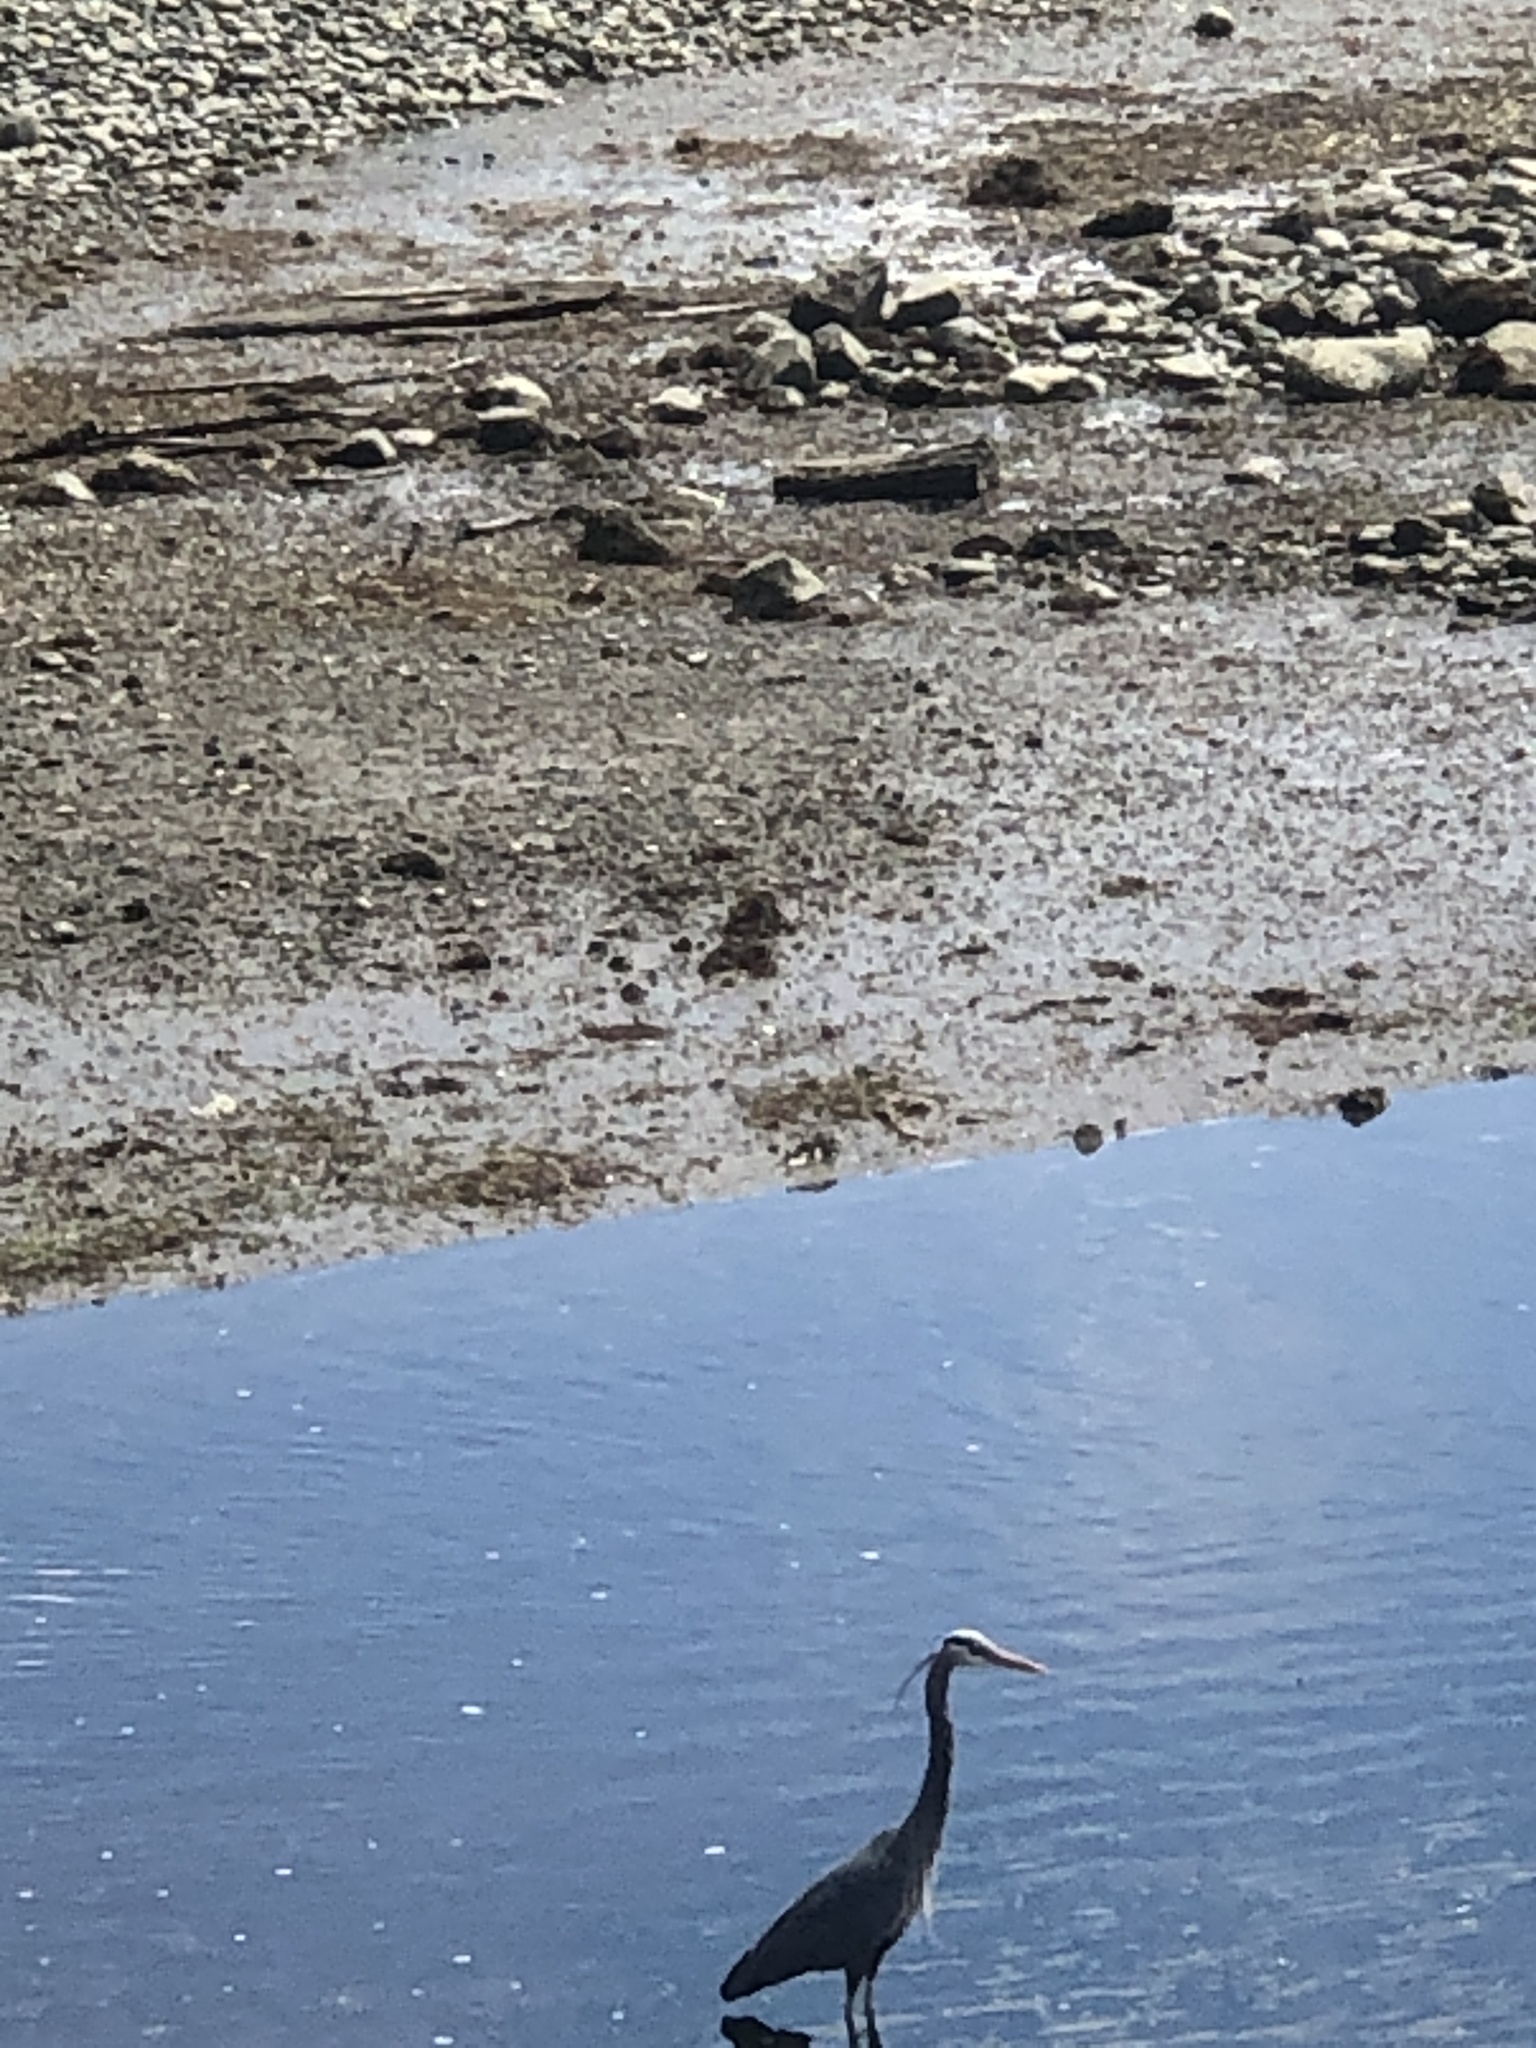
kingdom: Animalia
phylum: Chordata
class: Aves
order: Pelecaniformes
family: Ardeidae
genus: Ardea
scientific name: Ardea herodias
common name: Great blue heron
